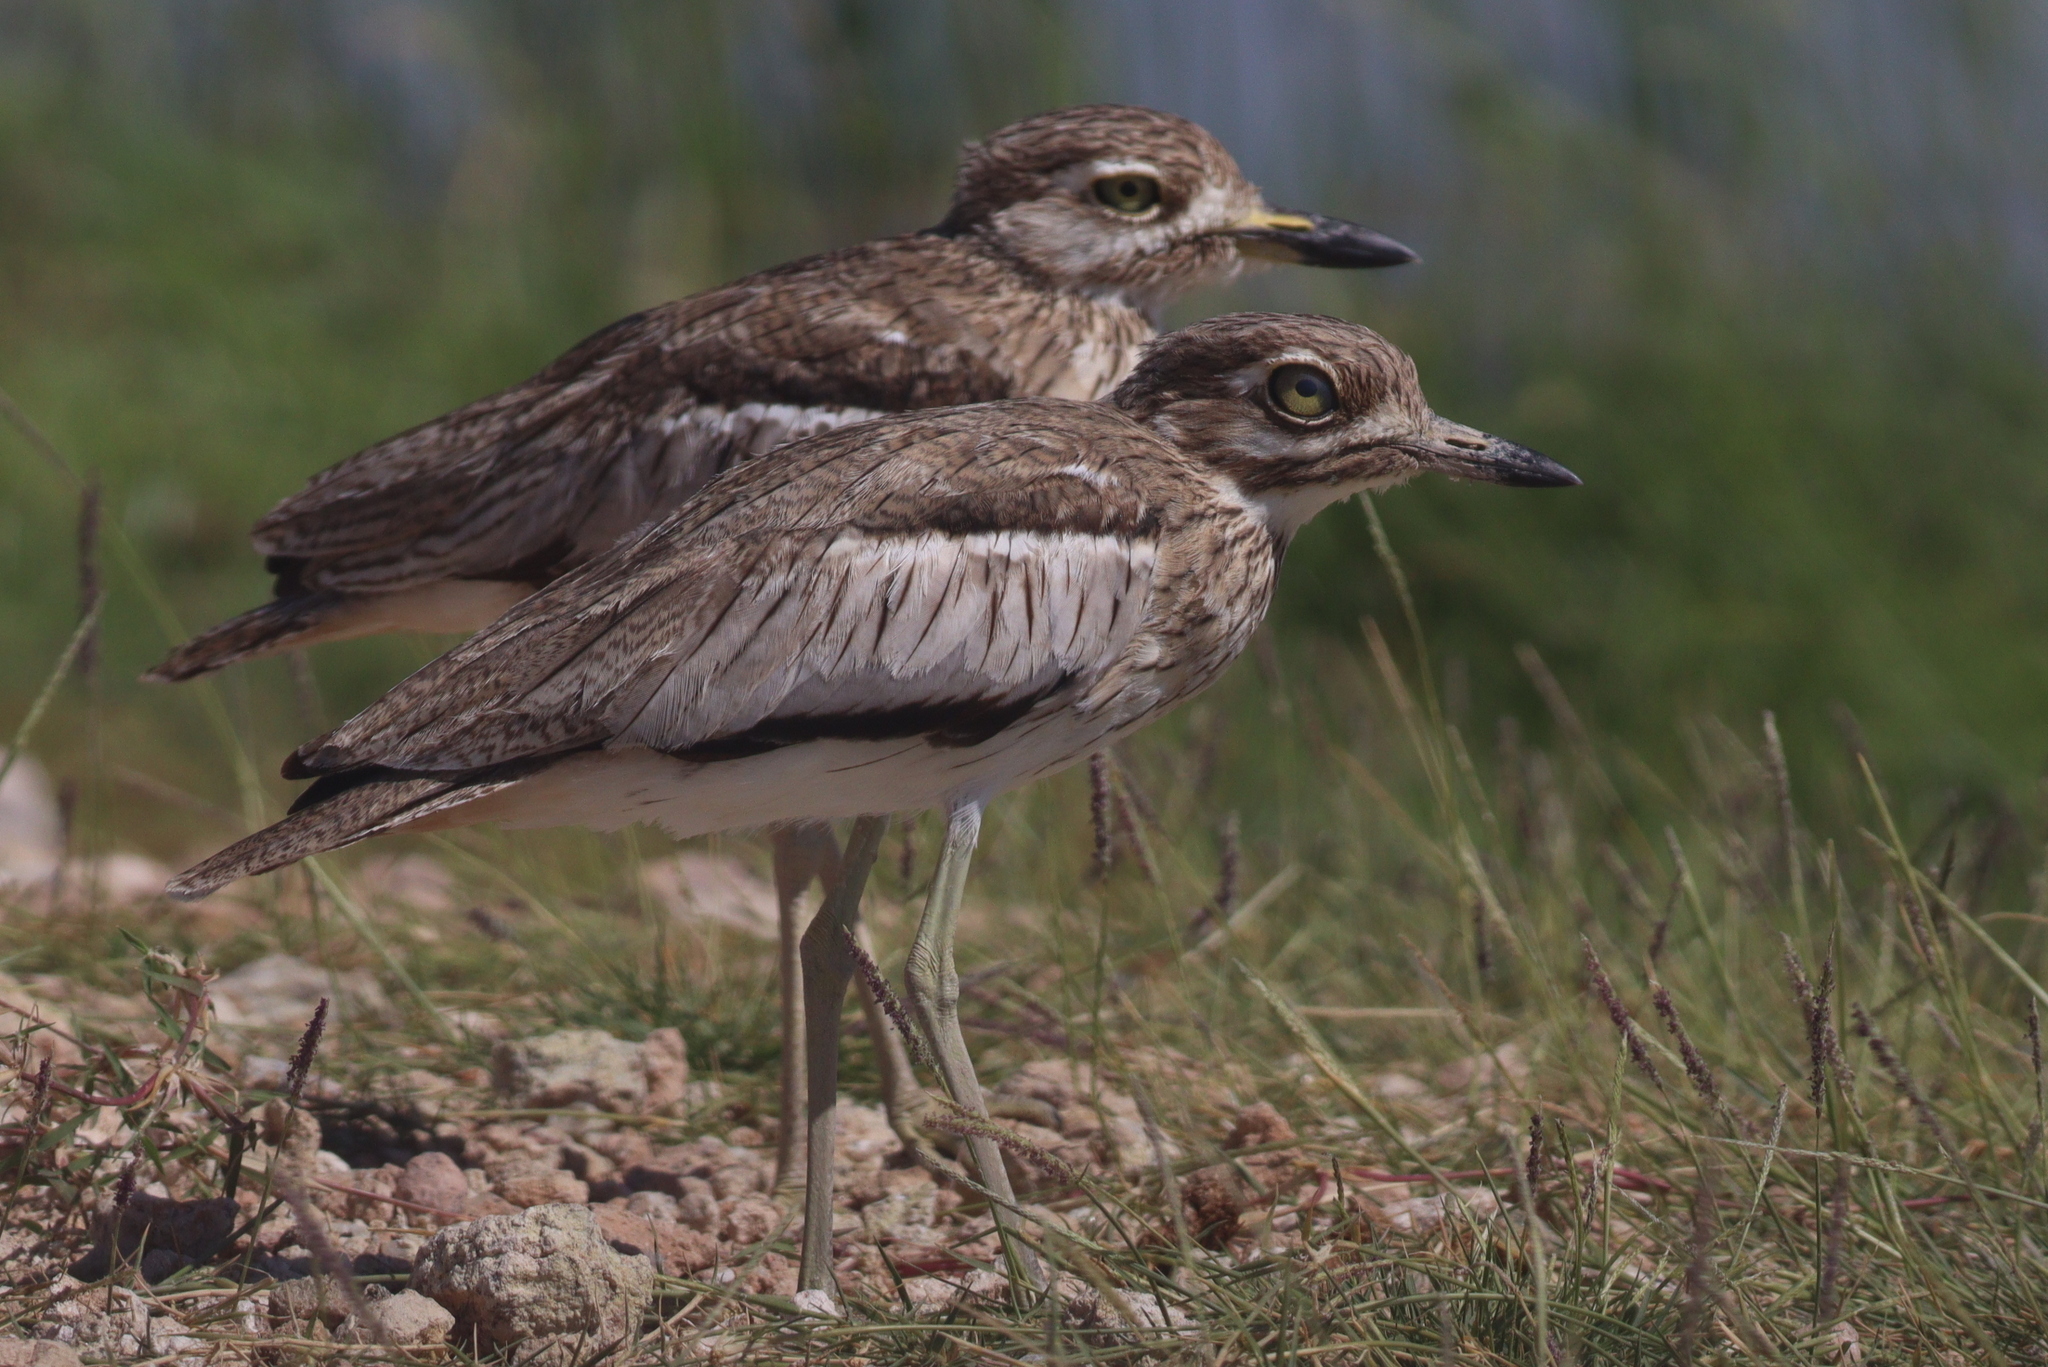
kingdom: Animalia
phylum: Chordata
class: Aves
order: Charadriiformes
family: Burhinidae
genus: Burhinus
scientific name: Burhinus vermiculatus
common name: Water thick-knee
